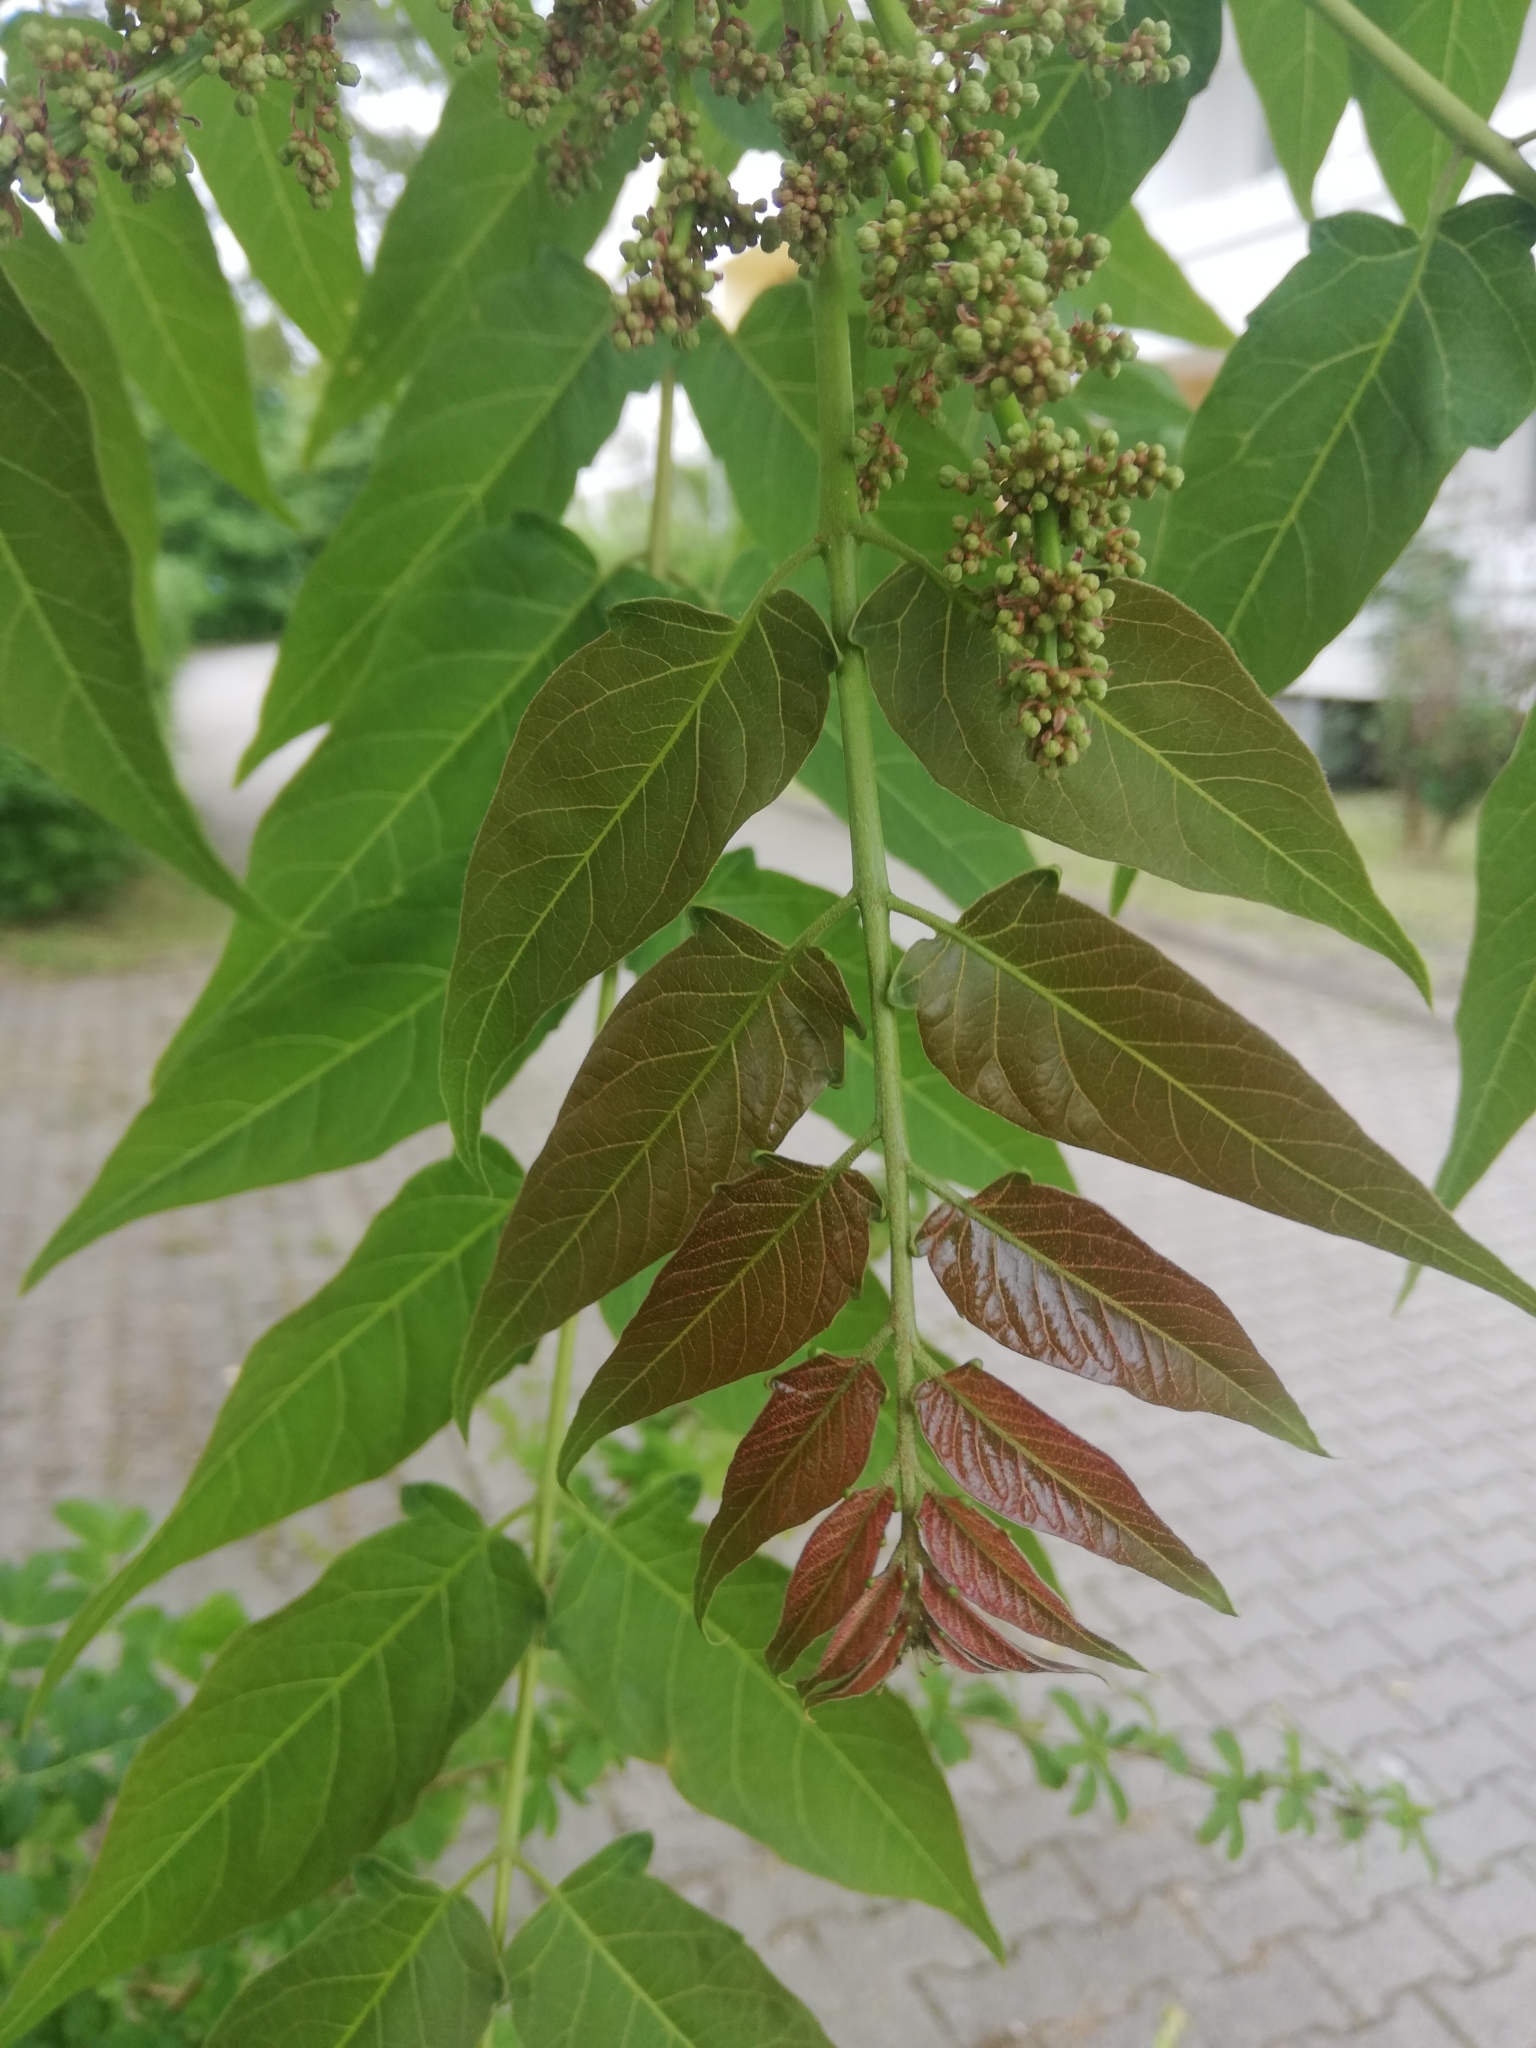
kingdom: Plantae
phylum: Tracheophyta
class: Magnoliopsida
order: Sapindales
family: Simaroubaceae
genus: Ailanthus
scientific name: Ailanthus altissima
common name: Tree-of-heaven
